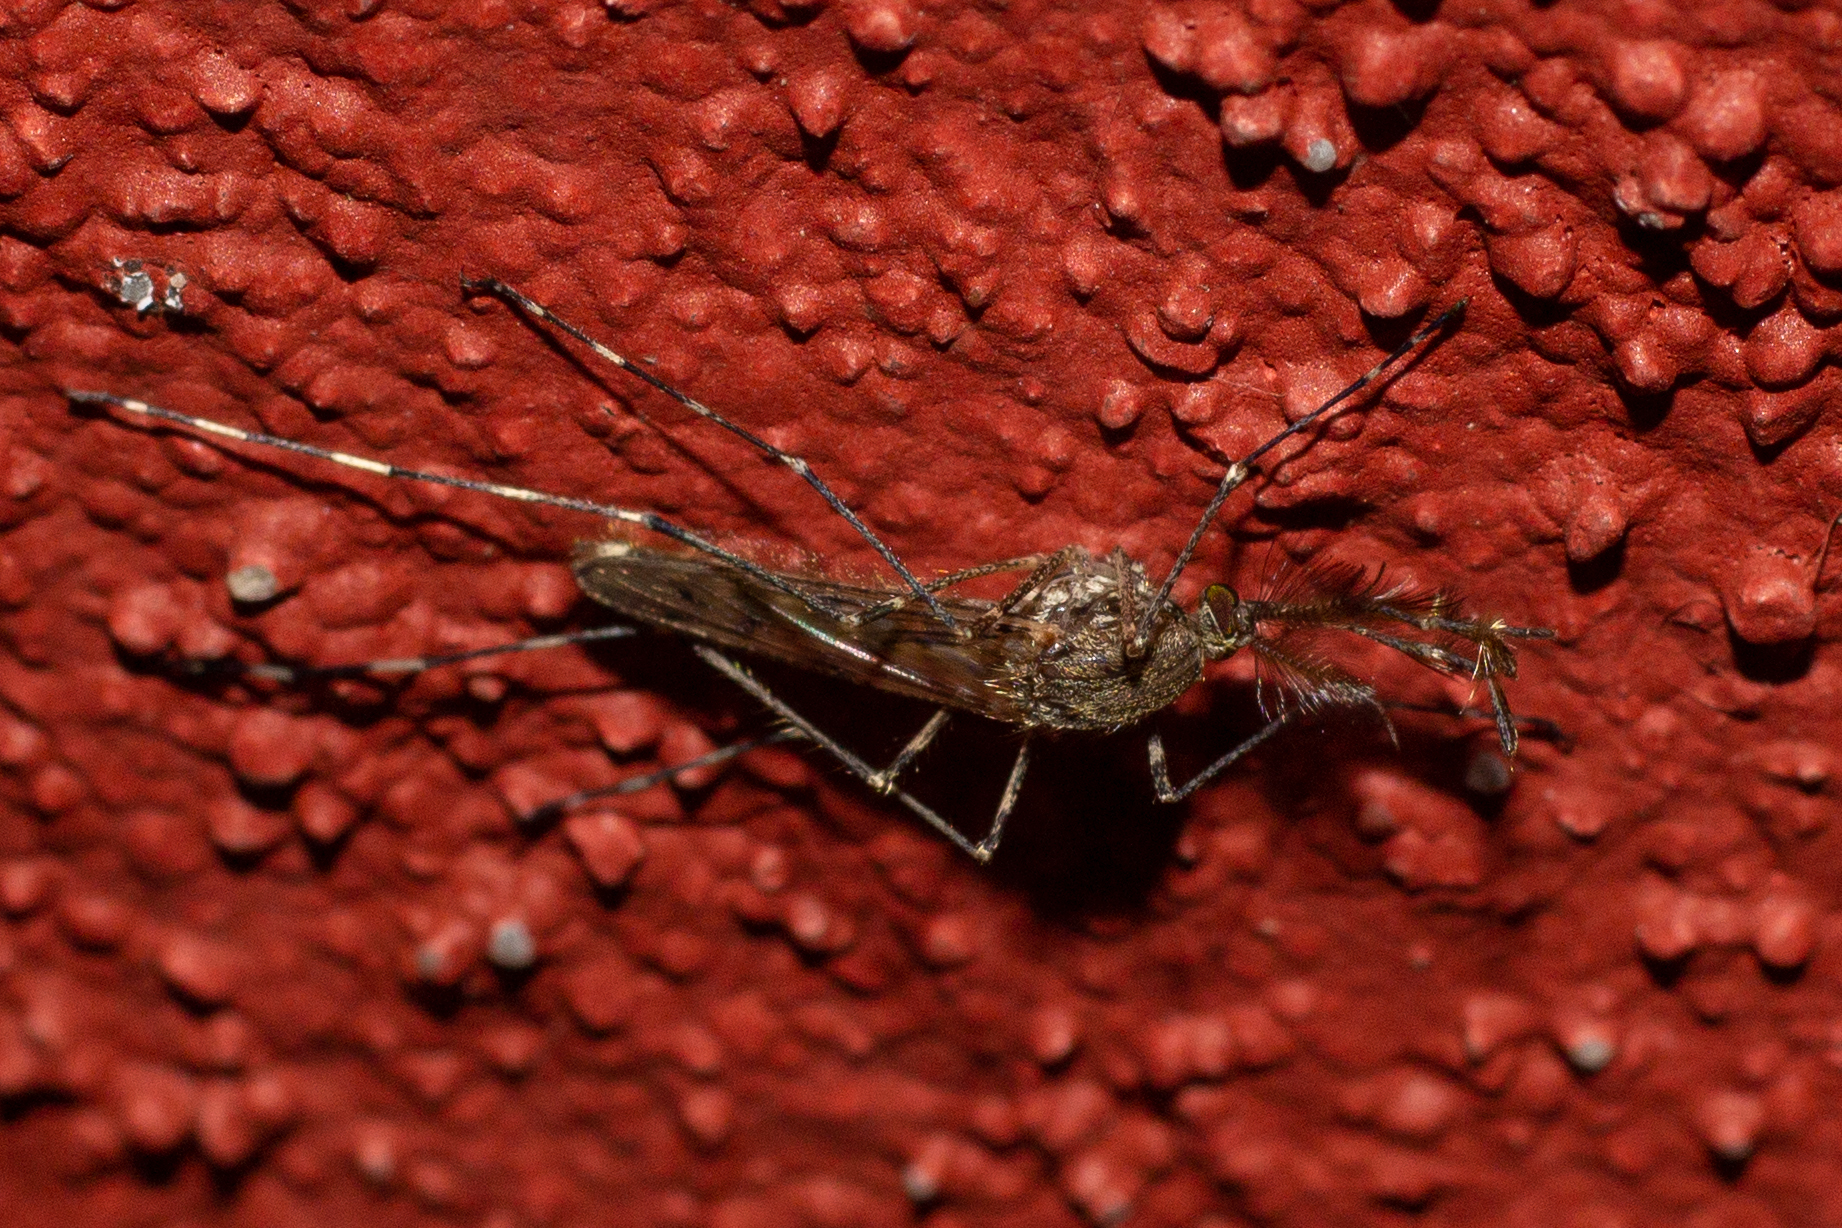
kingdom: Animalia
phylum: Arthropoda
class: Insecta
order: Diptera
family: Culicidae
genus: Culiseta
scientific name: Culiseta annulata
